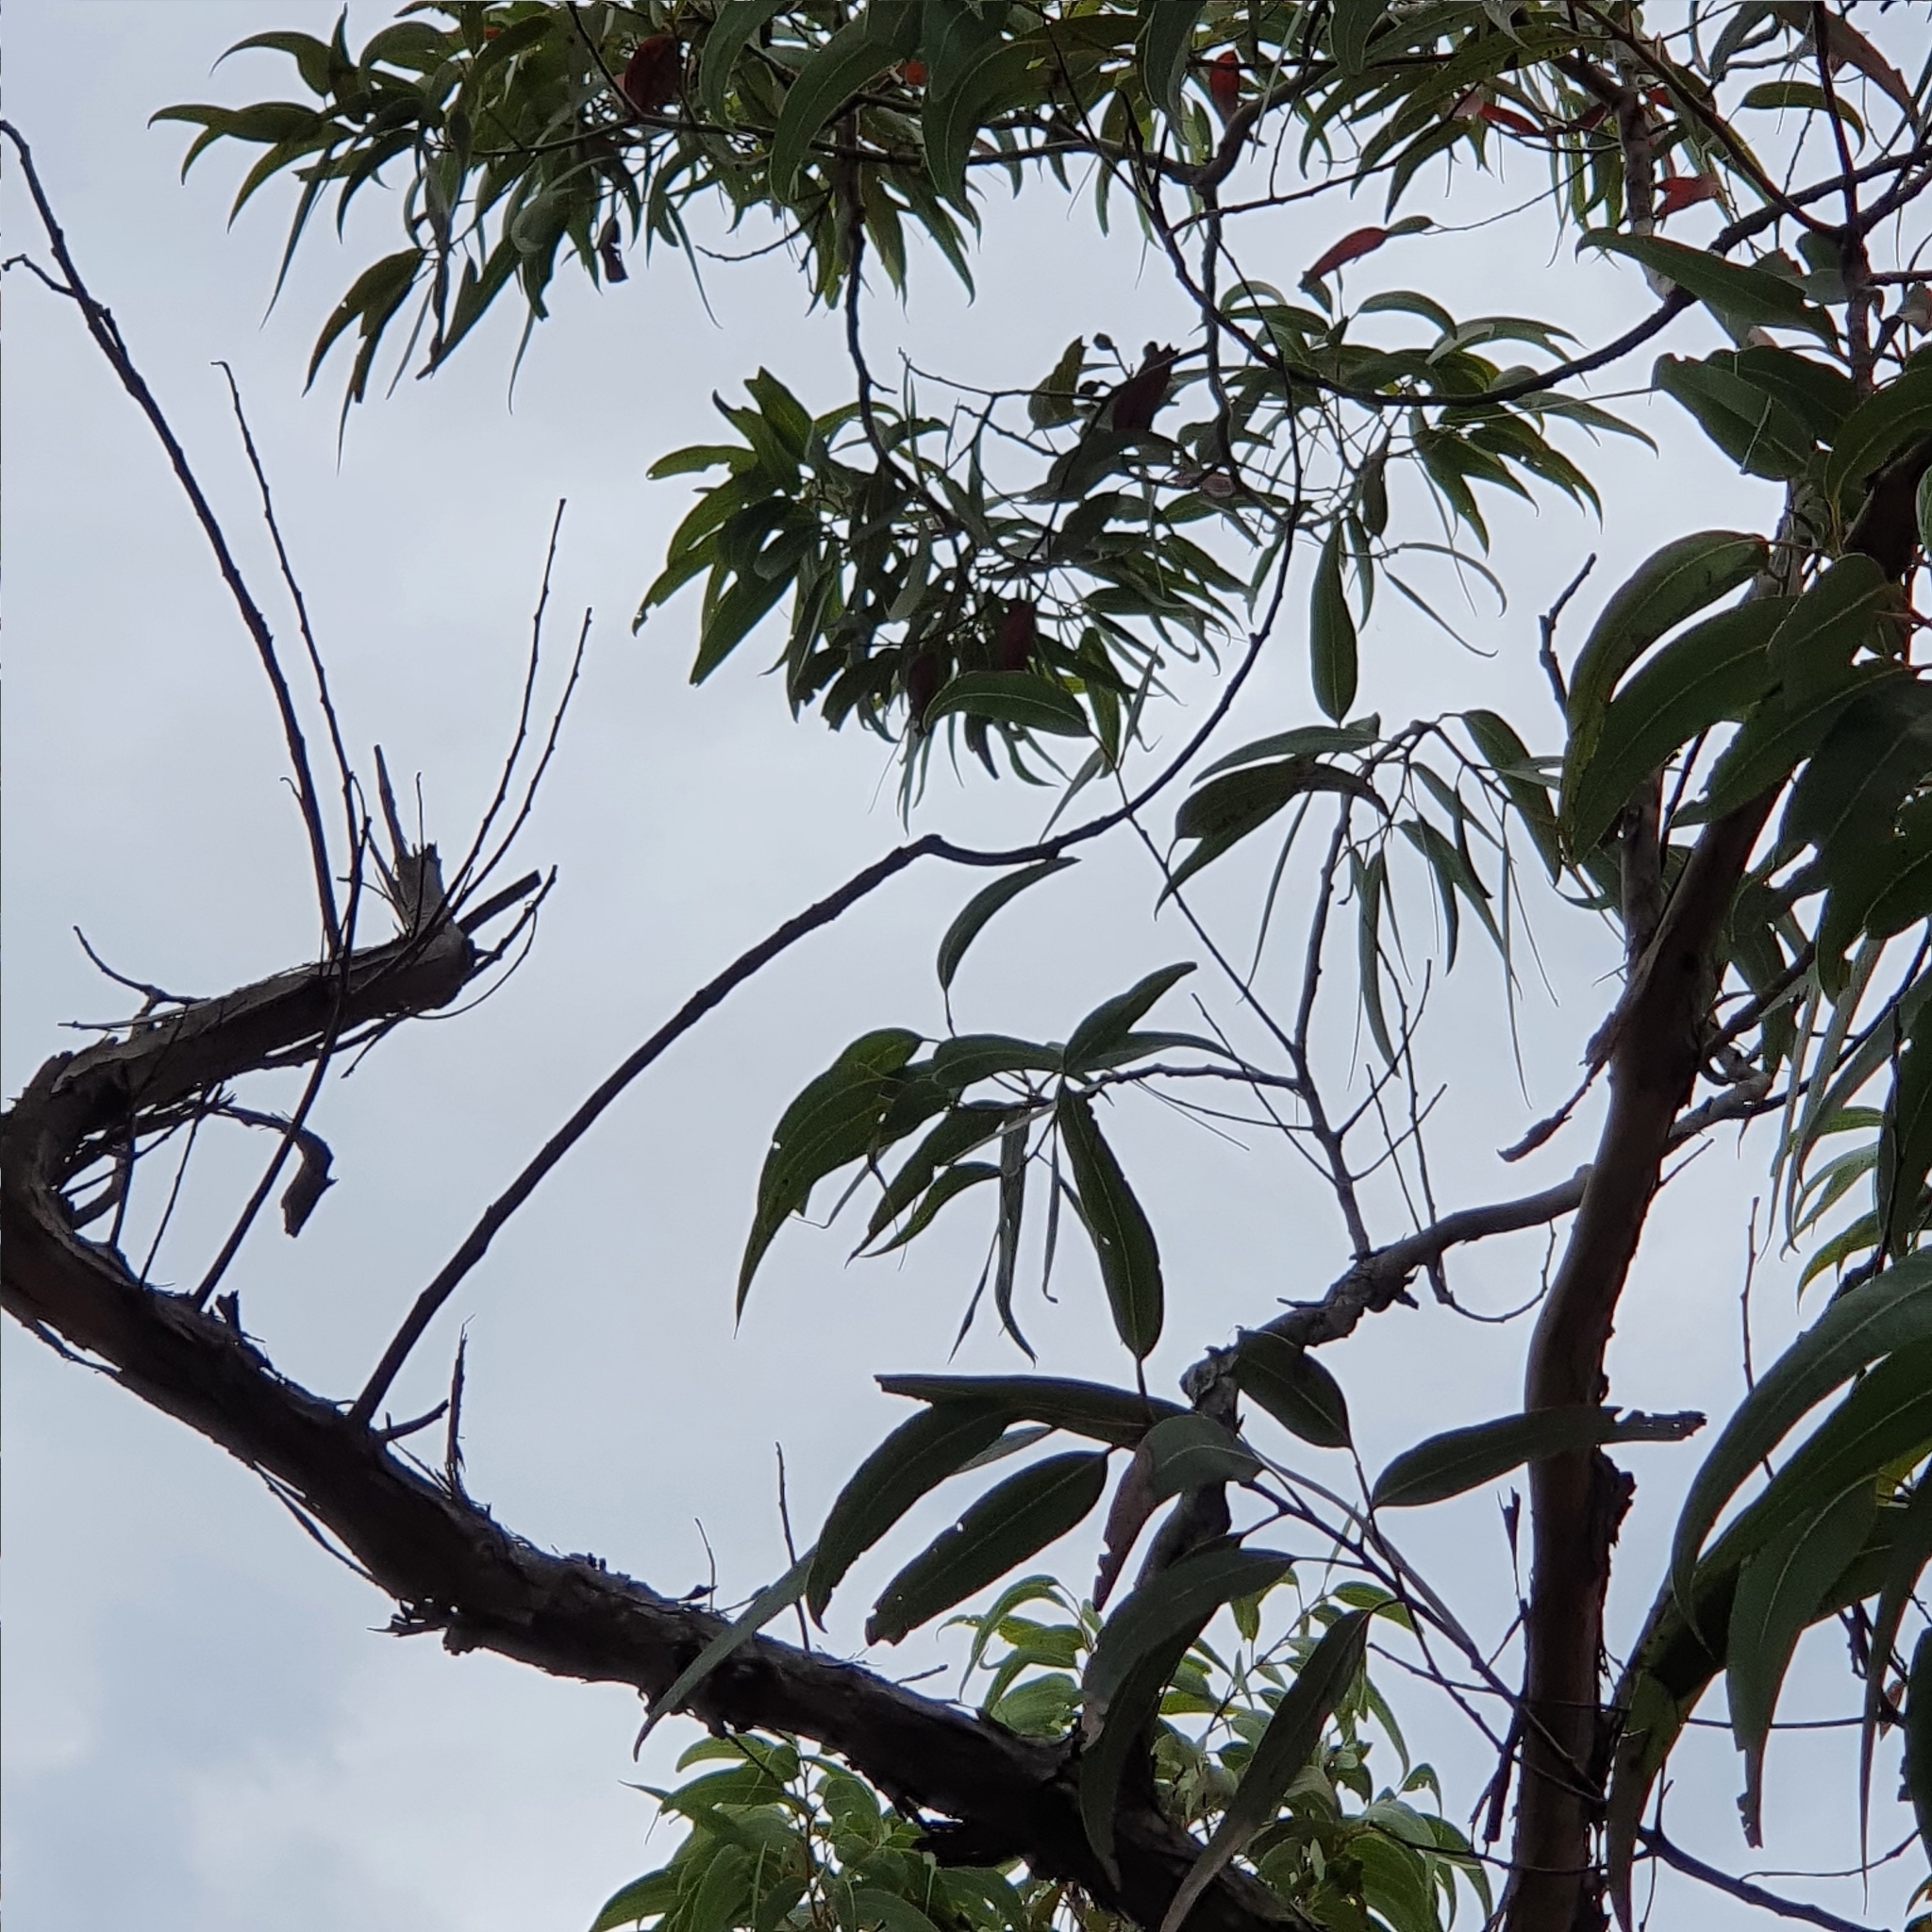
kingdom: Plantae
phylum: Tracheophyta
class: Magnoliopsida
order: Myrtales
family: Myrtaceae
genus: Corymbia
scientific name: Corymbia eximia
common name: Yellow bloodwood
